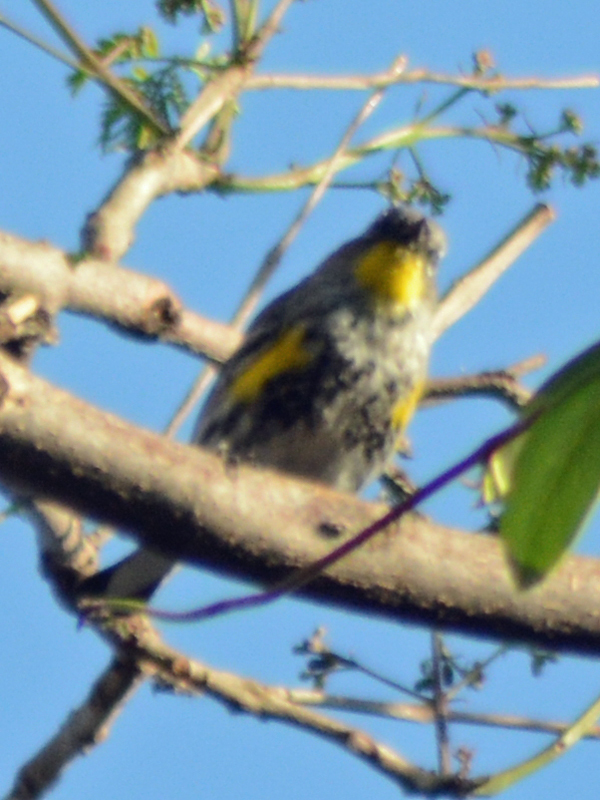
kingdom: Animalia
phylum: Chordata
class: Aves
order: Passeriformes
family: Parulidae
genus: Setophaga
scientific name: Setophaga coronata
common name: Myrtle warbler
